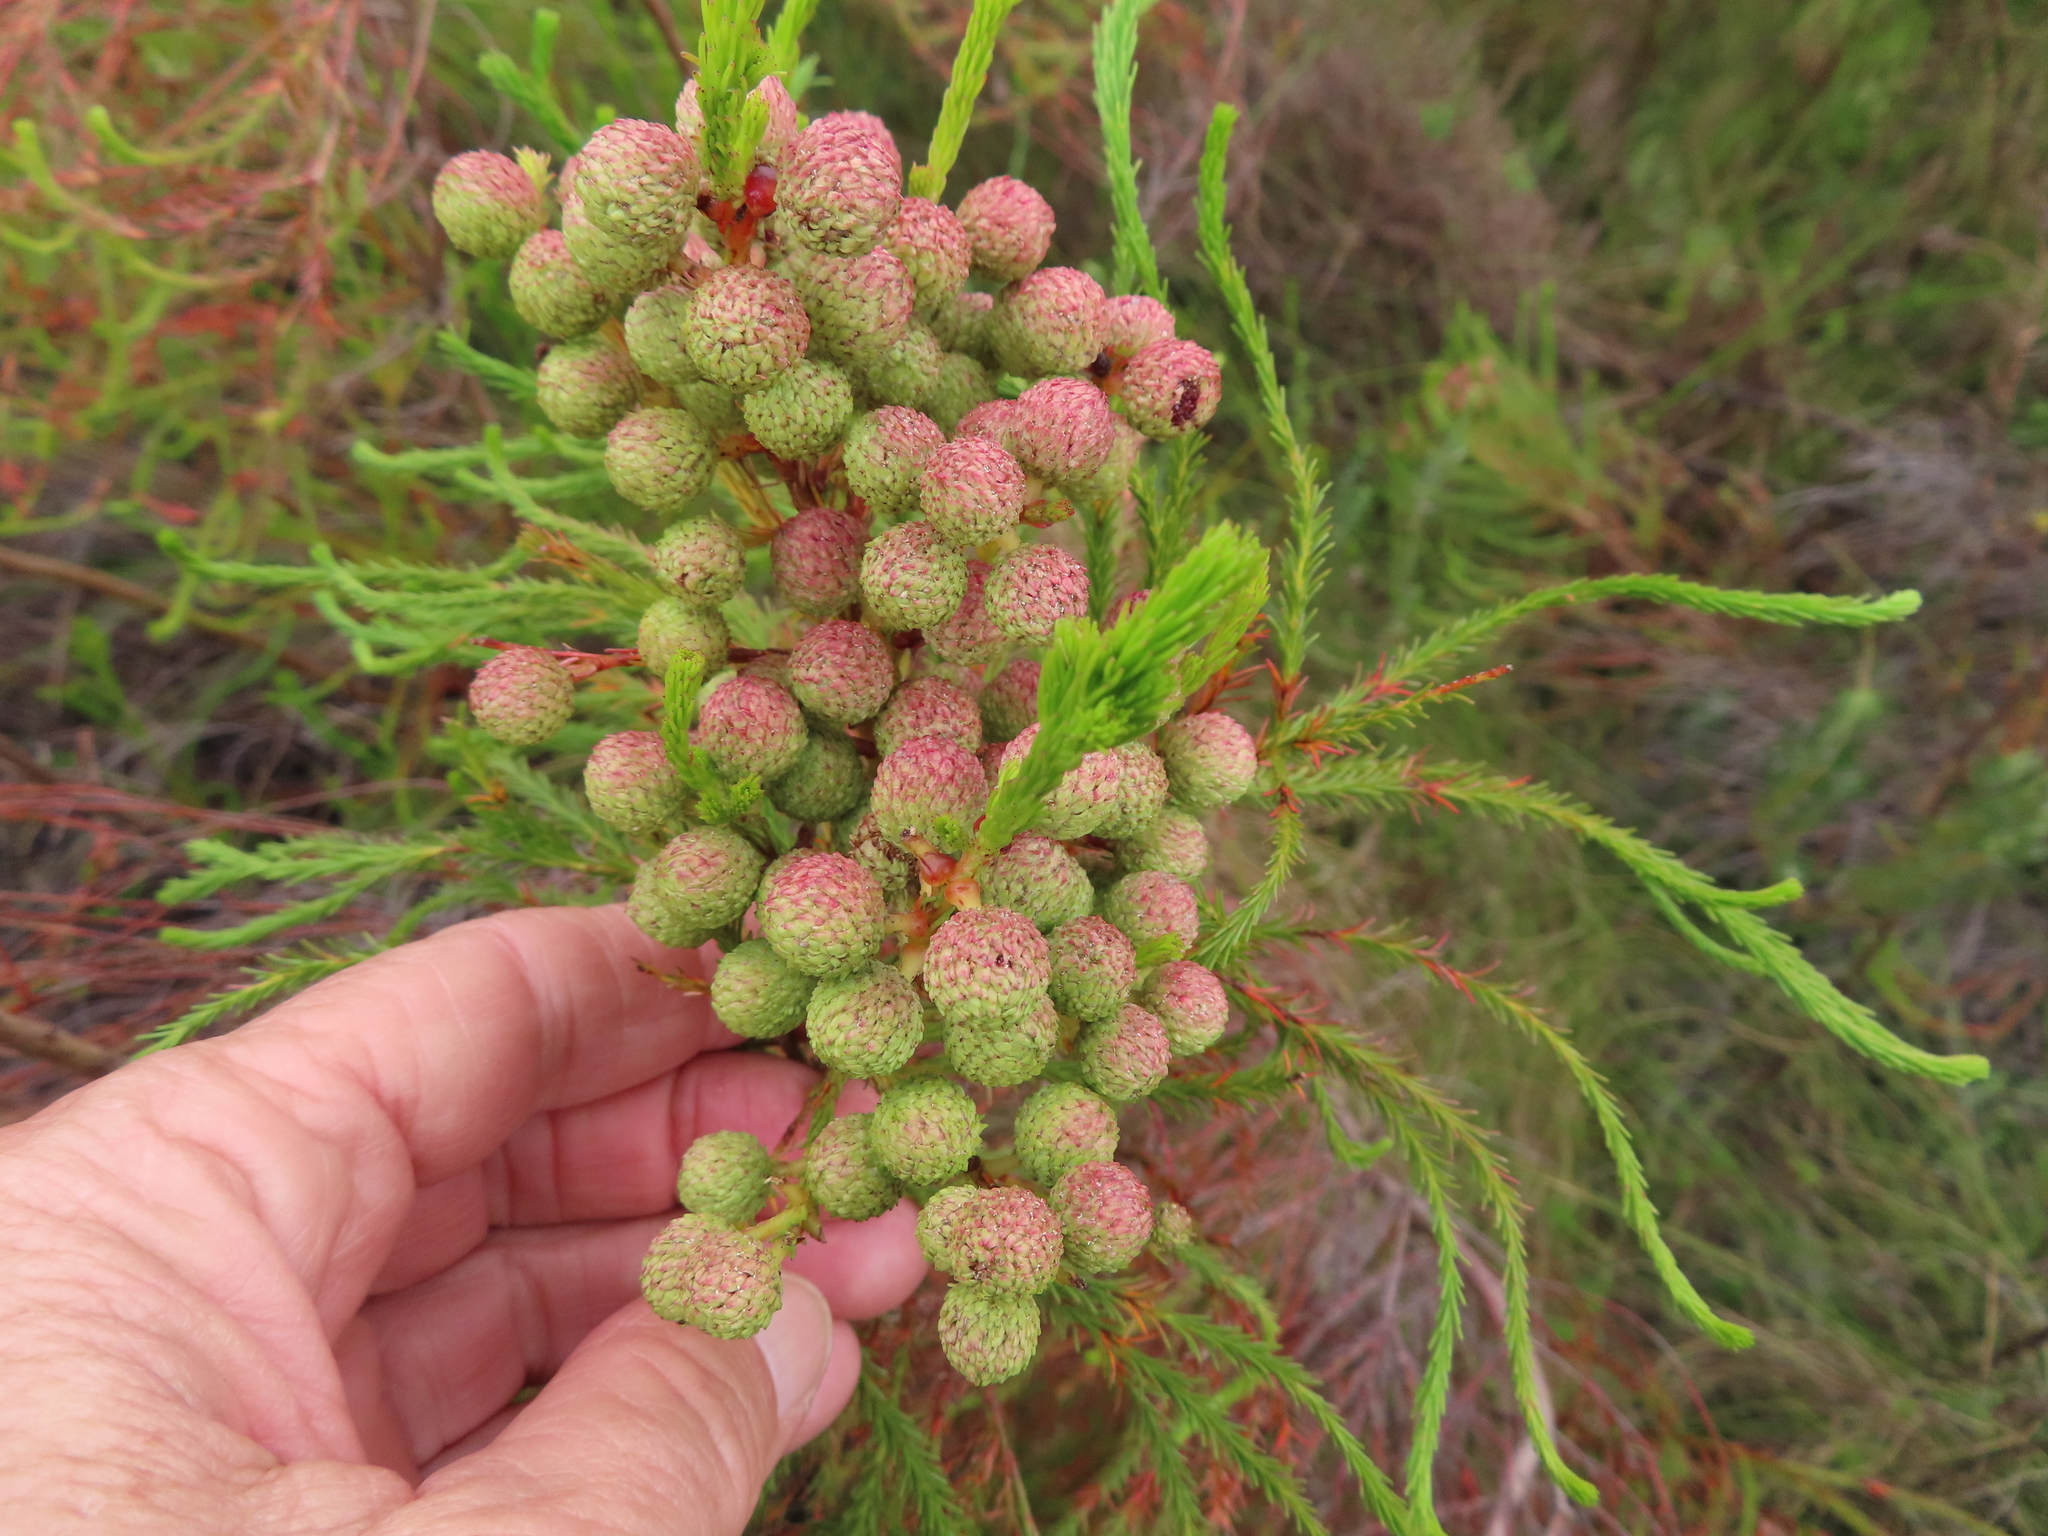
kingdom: Plantae
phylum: Tracheophyta
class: Magnoliopsida
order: Bruniales
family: Bruniaceae
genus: Berzelia
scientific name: Berzelia lanuginosa
